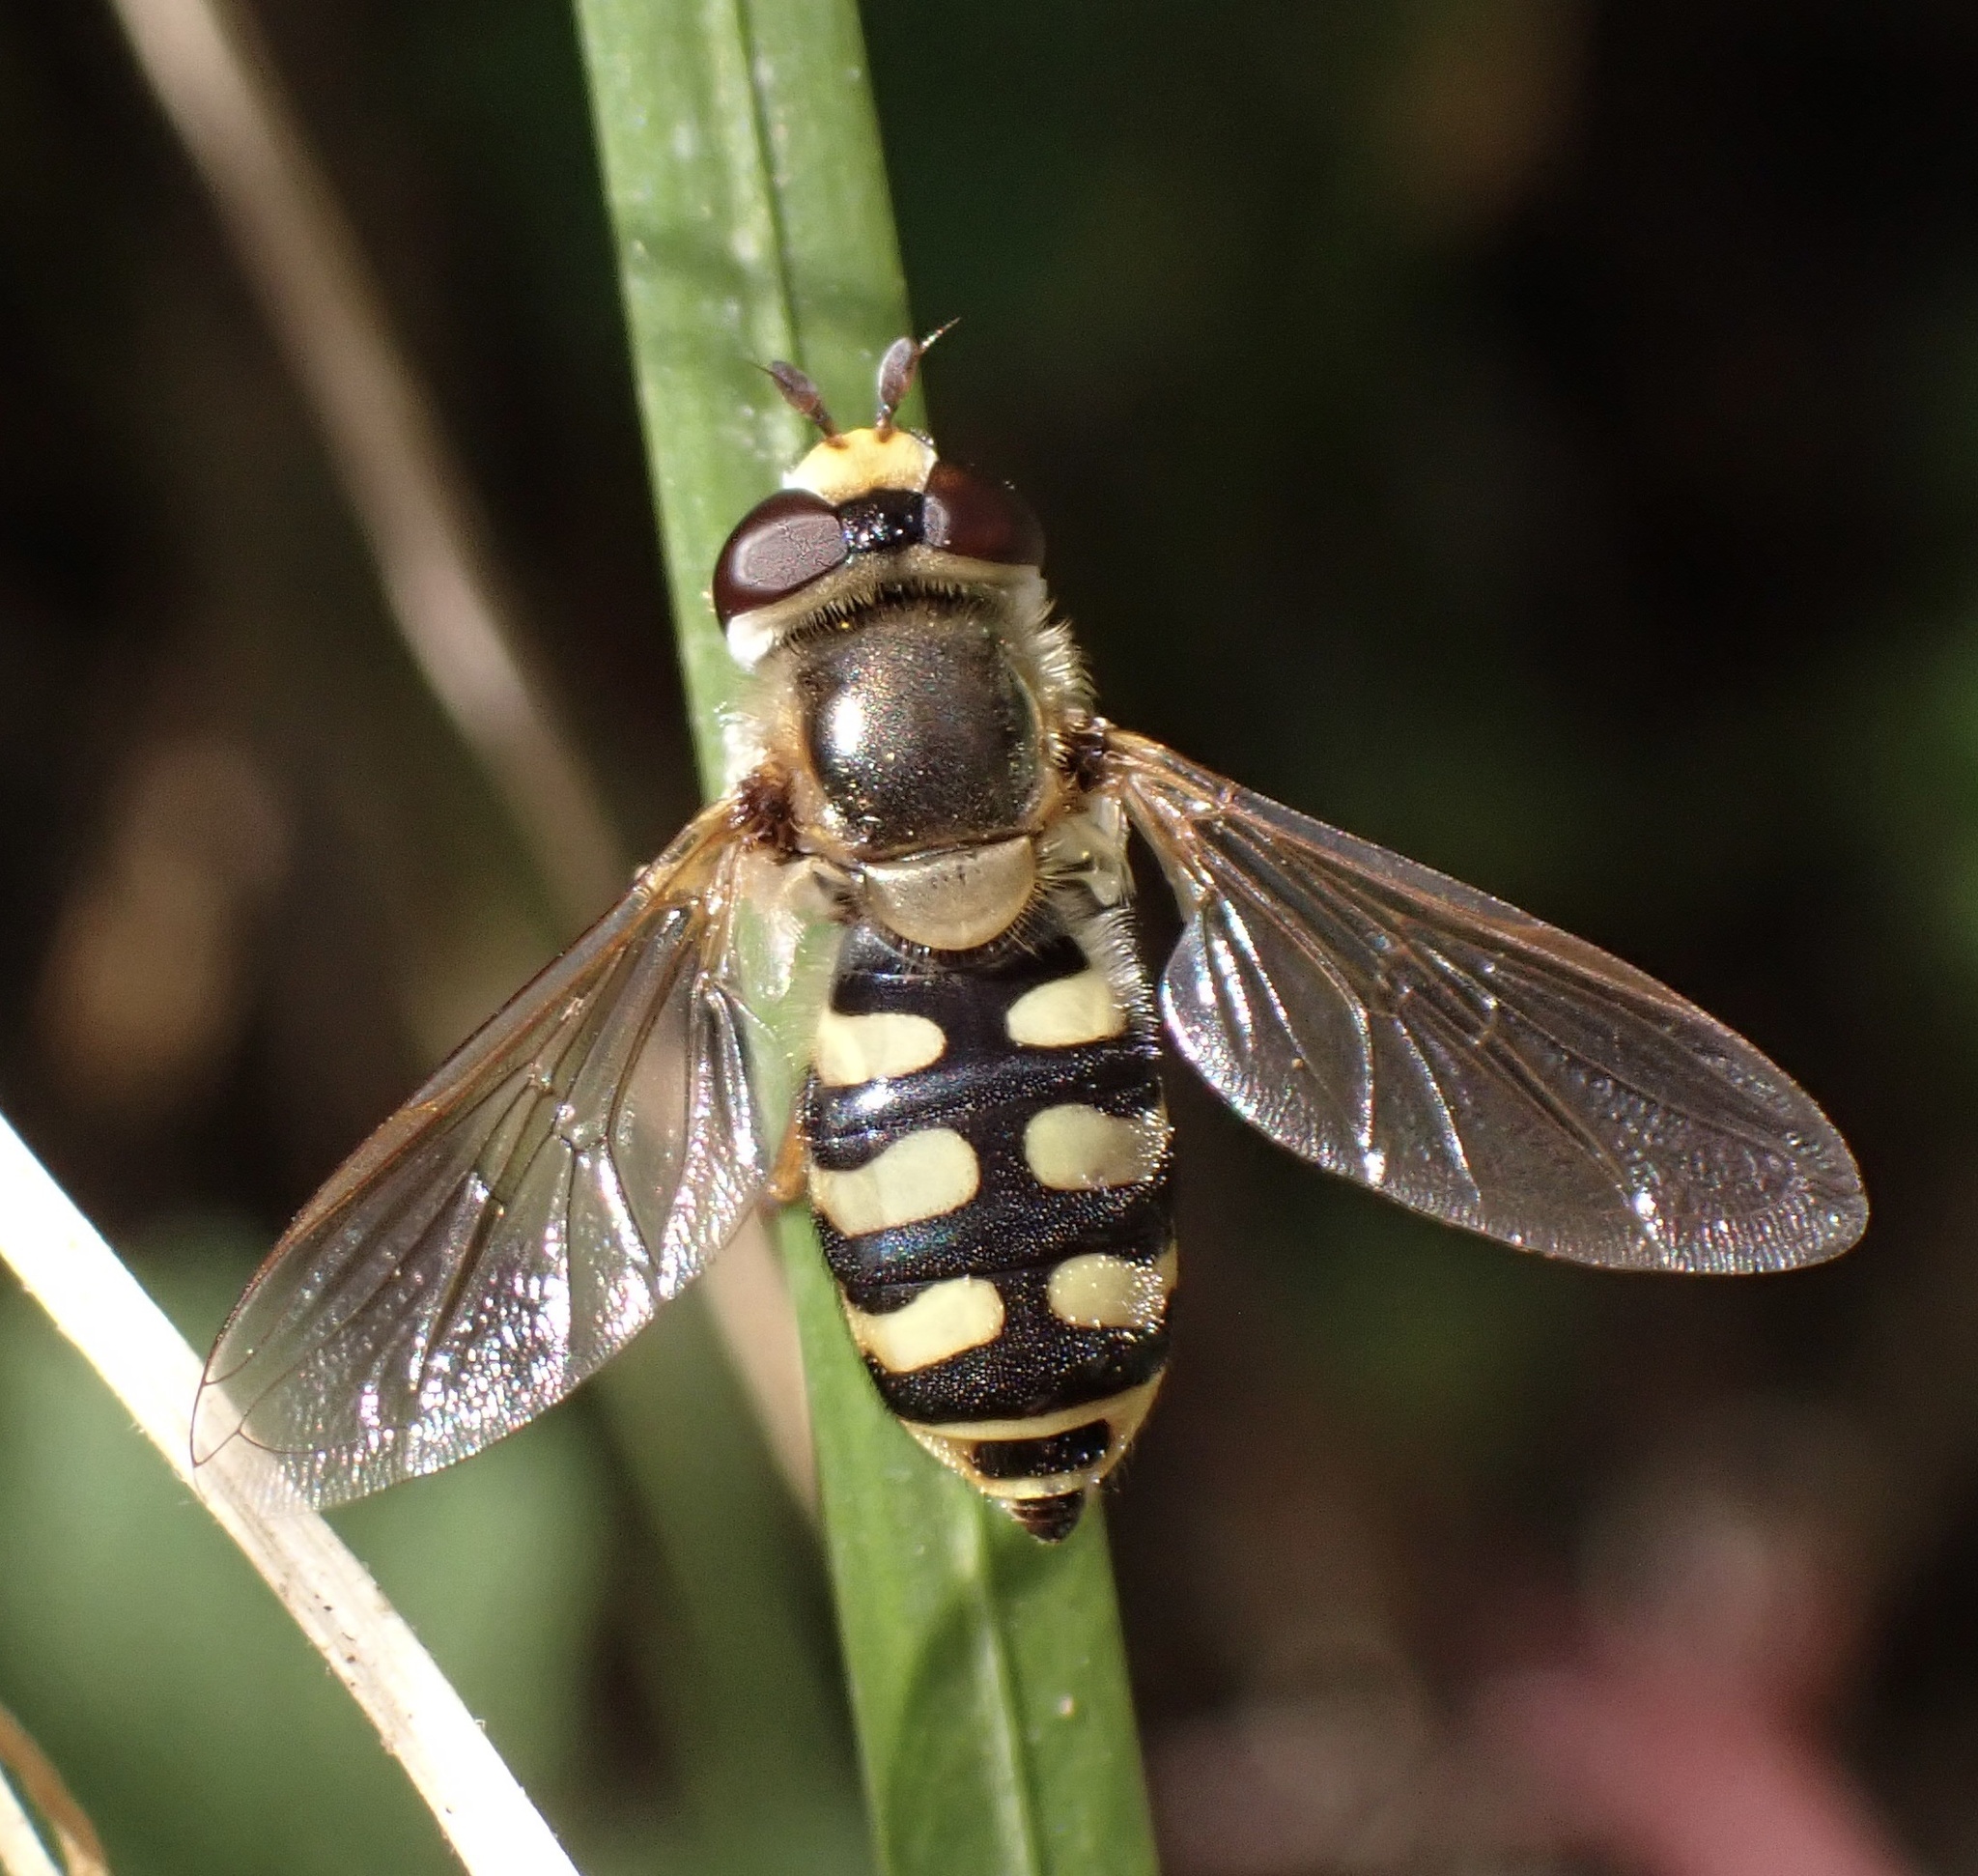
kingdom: Animalia
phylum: Arthropoda
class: Insecta
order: Diptera
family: Syrphidae
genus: Eupeodes
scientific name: Eupeodes corollae
